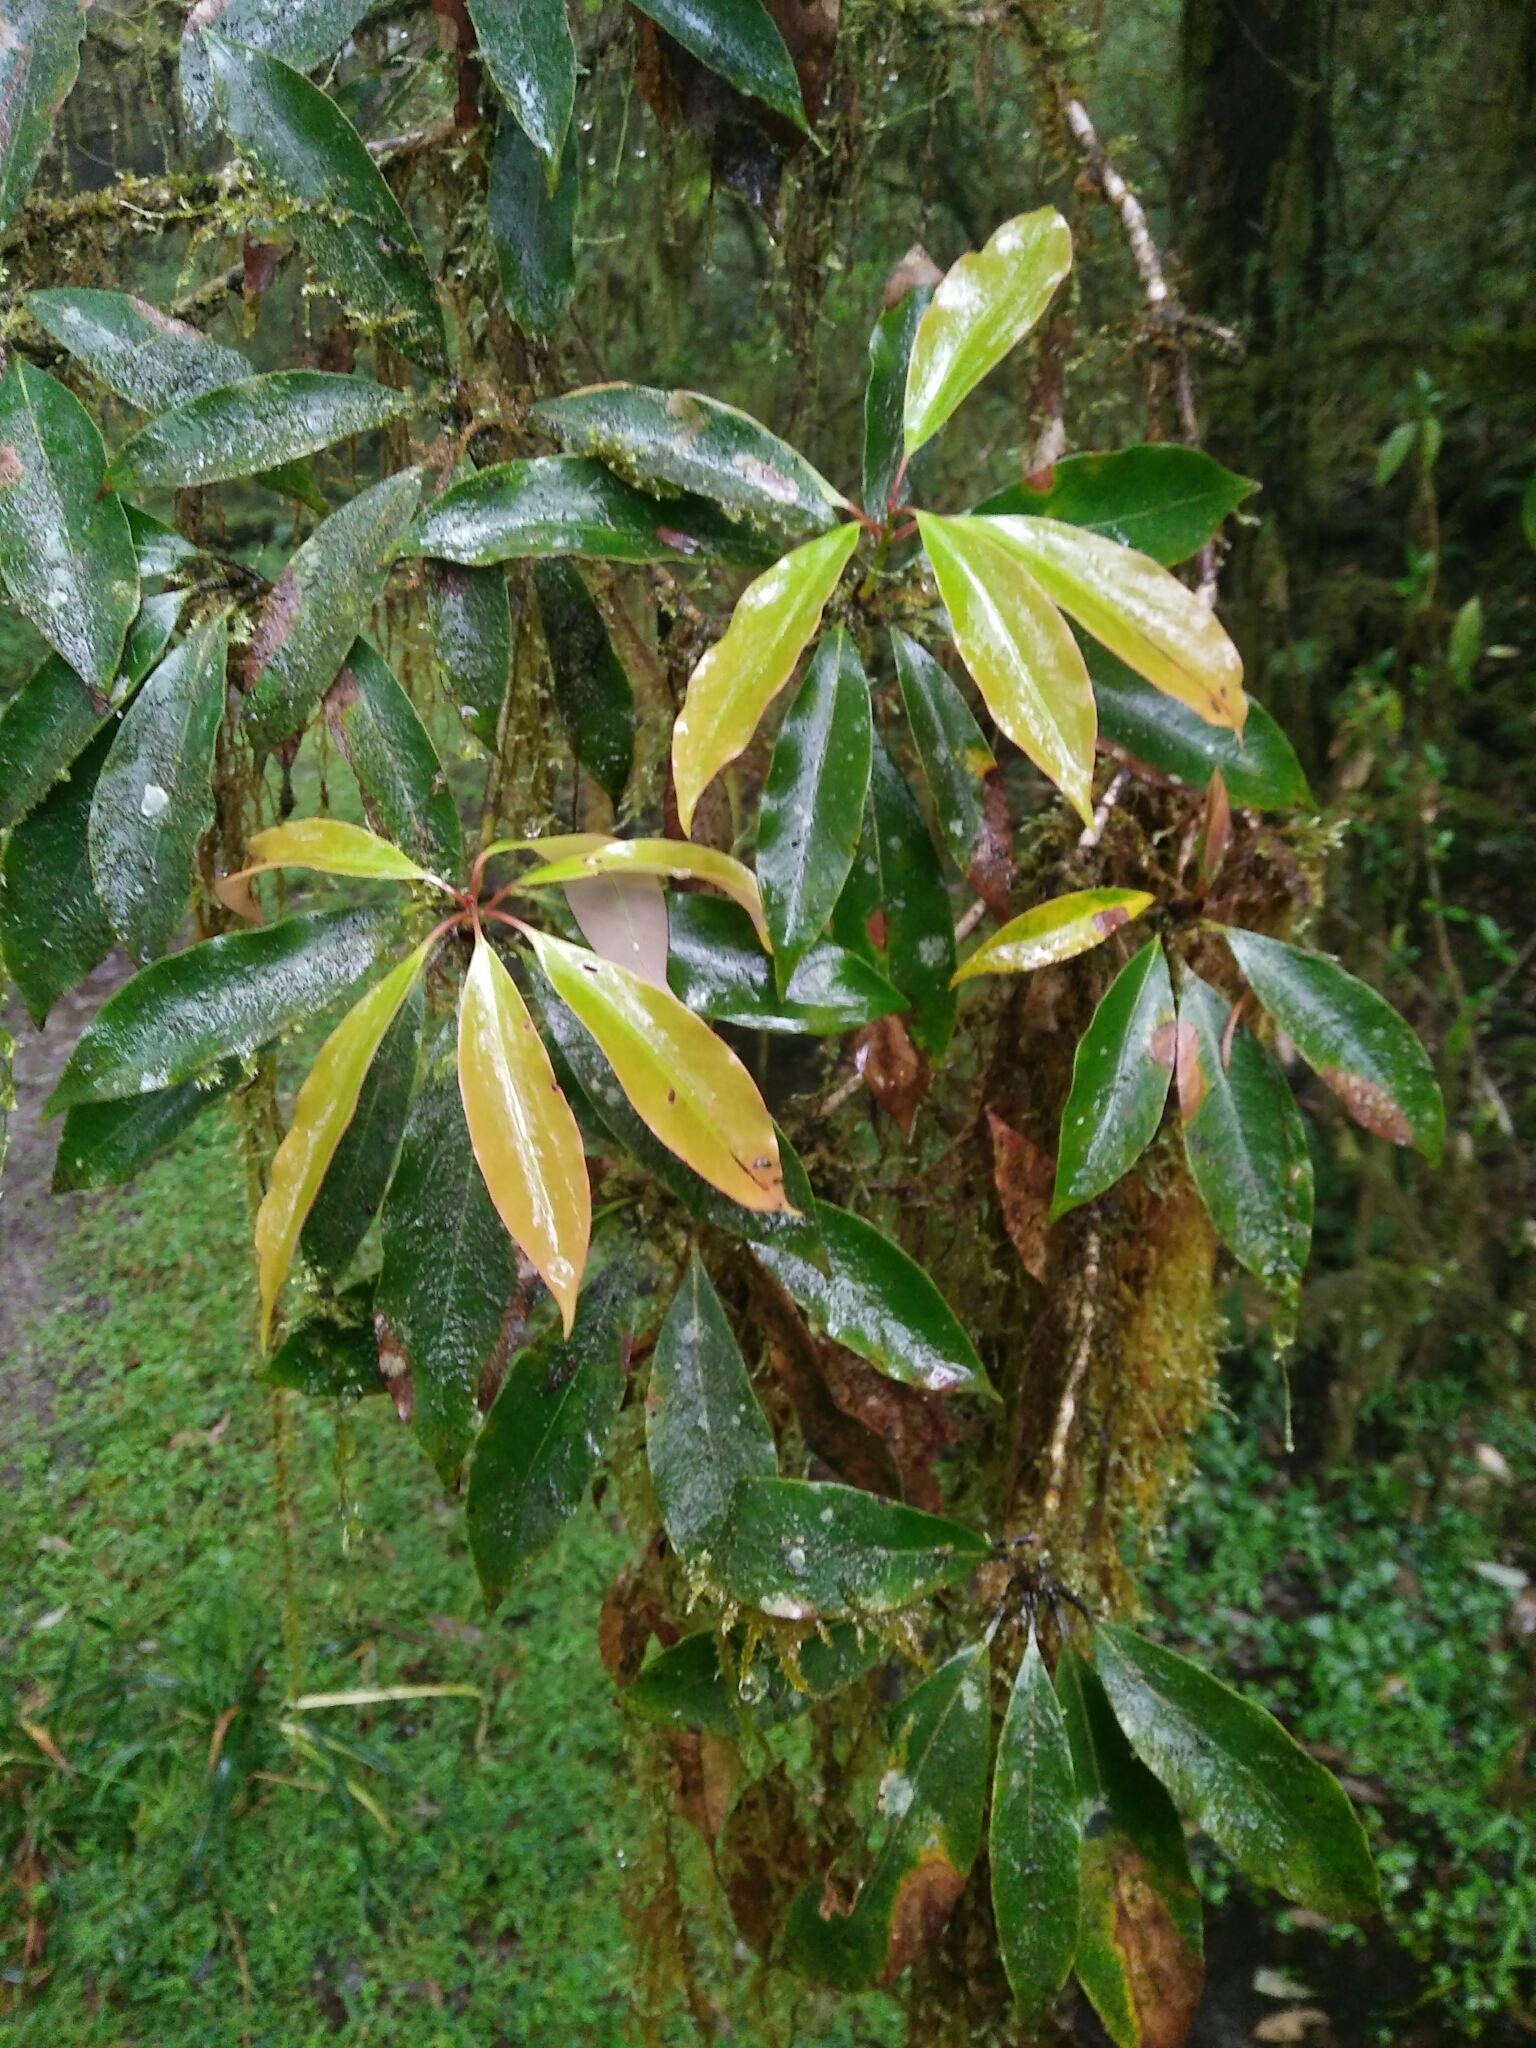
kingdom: Plantae
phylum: Tracheophyta
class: Magnoliopsida
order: Laurales
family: Lauraceae
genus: Machilus
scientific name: Machilus japonica
